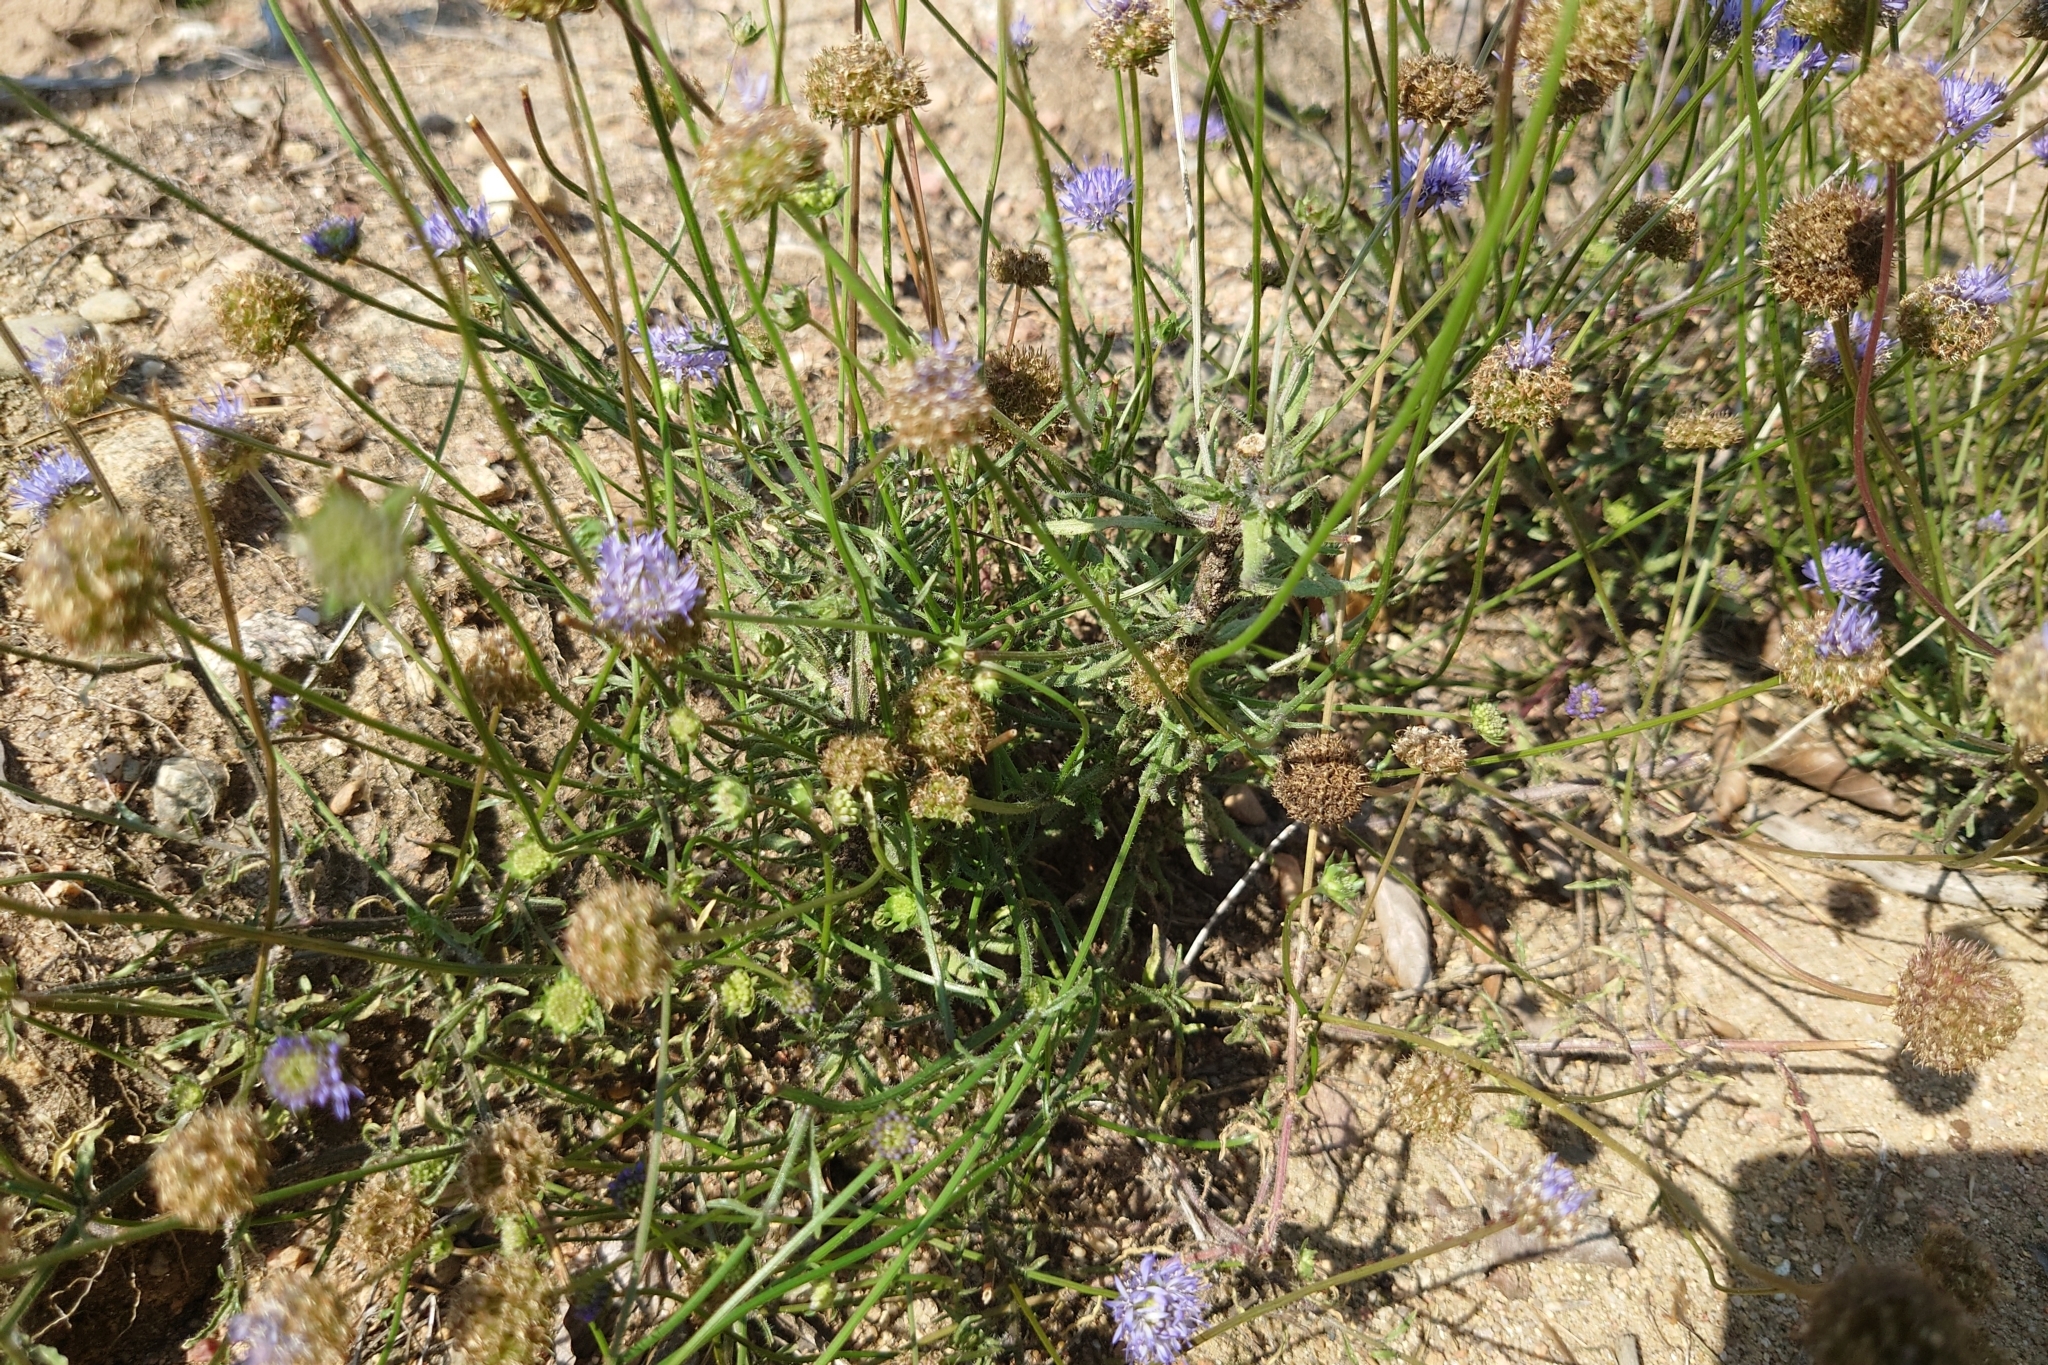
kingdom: Plantae
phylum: Tracheophyta
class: Magnoliopsida
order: Asterales
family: Campanulaceae
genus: Jasione
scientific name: Jasione montana
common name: Sheep's-bit
